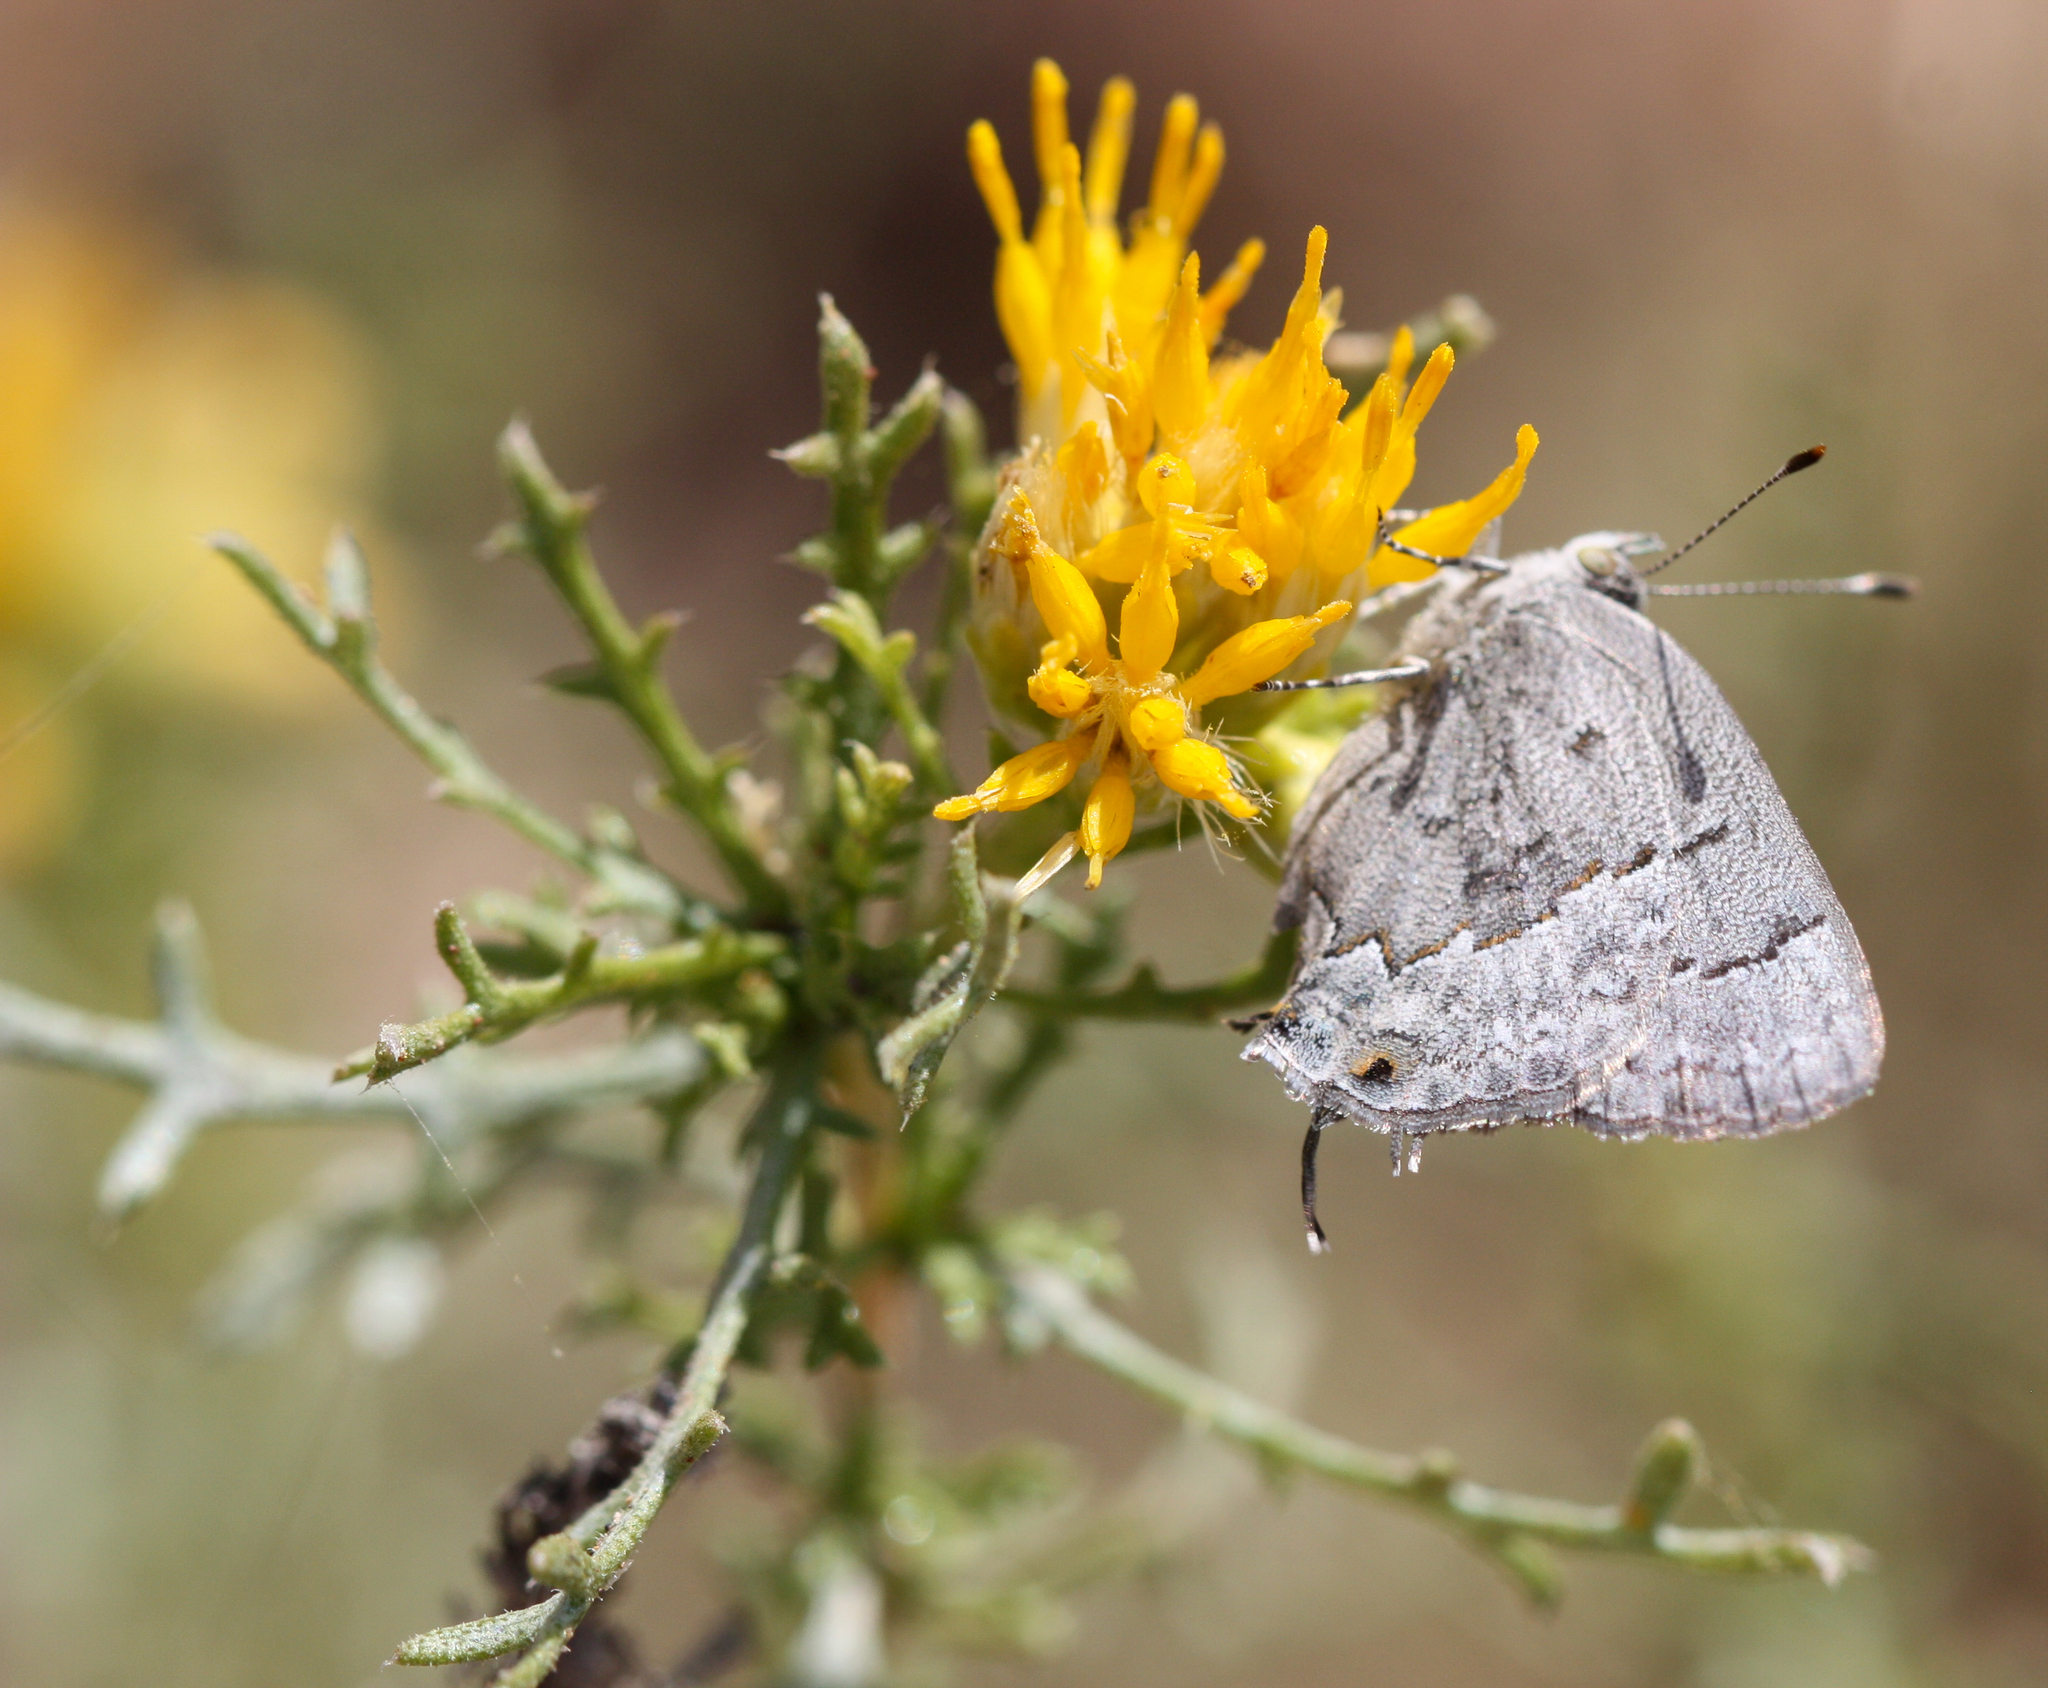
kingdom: Animalia
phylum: Arthropoda
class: Insecta
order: Lepidoptera
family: Lycaenidae
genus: Ministrymon
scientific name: Ministrymon leda
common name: Leda ministreak
